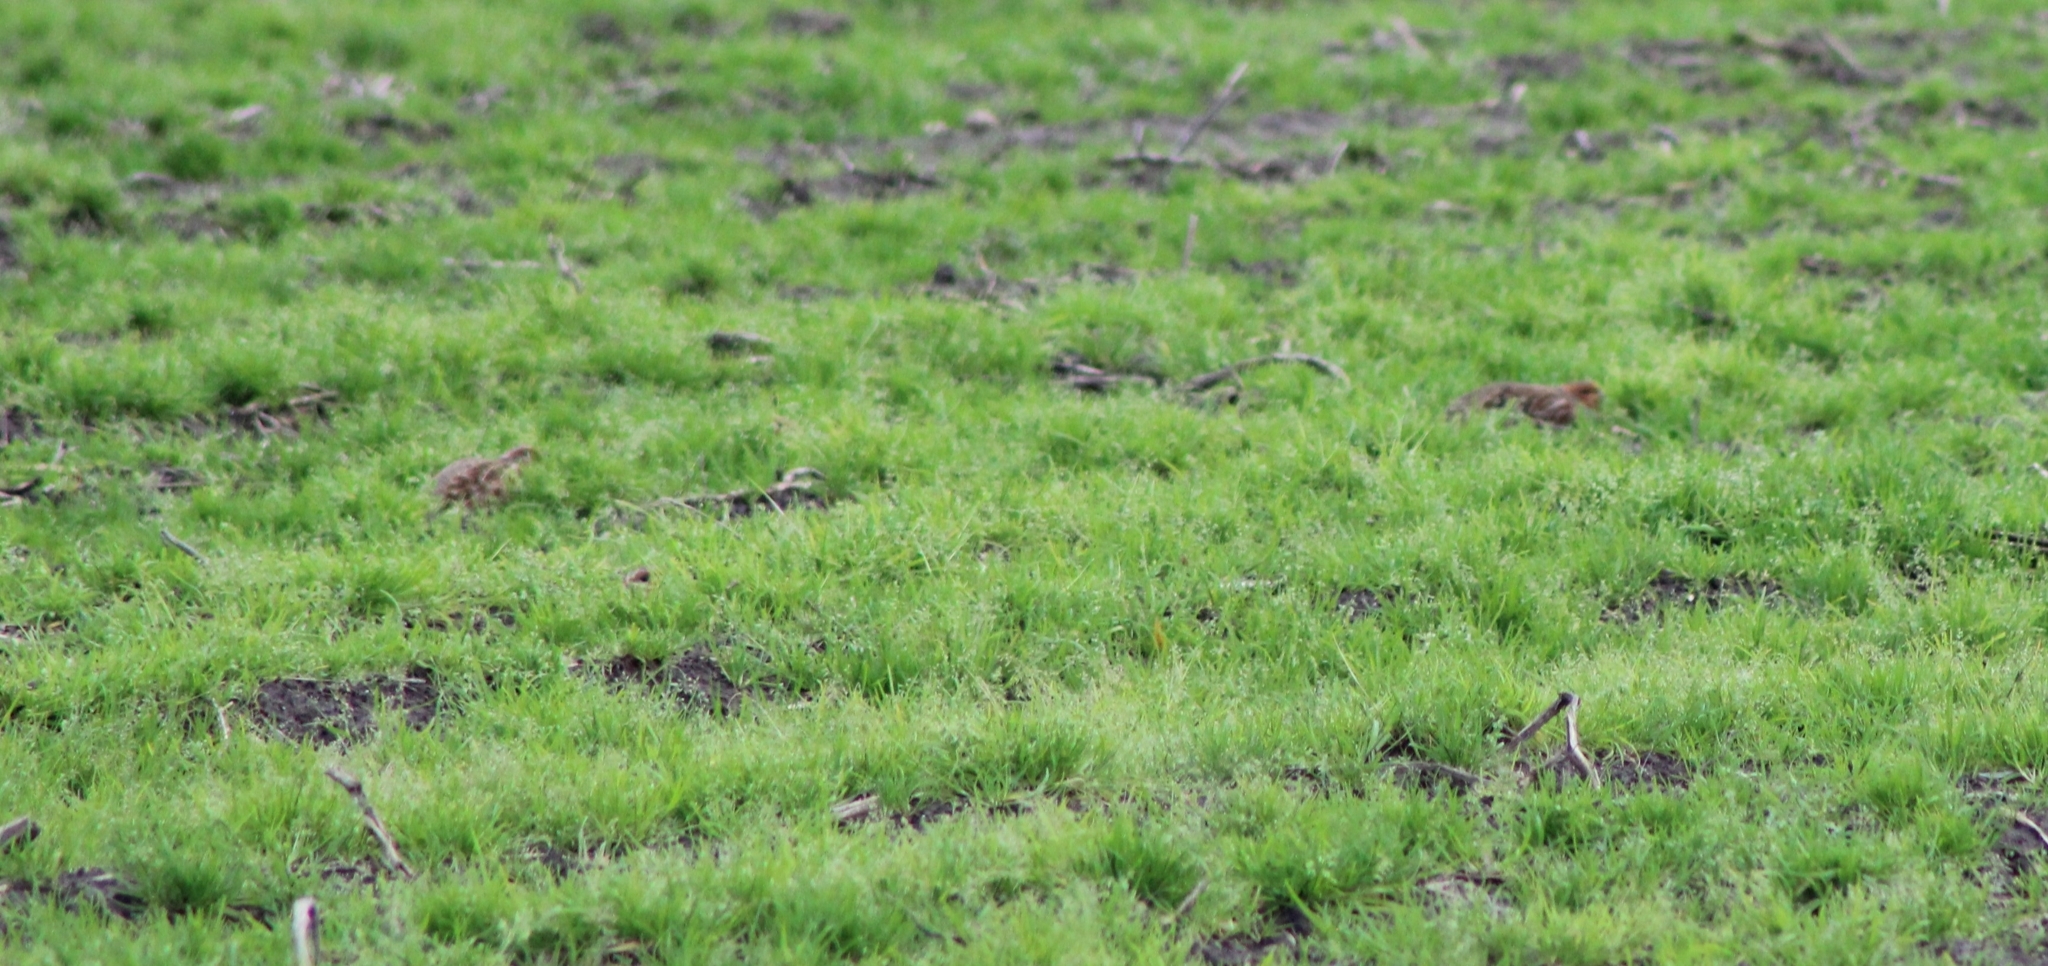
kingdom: Animalia
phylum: Chordata
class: Aves
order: Galliformes
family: Phasianidae
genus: Perdix
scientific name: Perdix perdix
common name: Grey partridge
